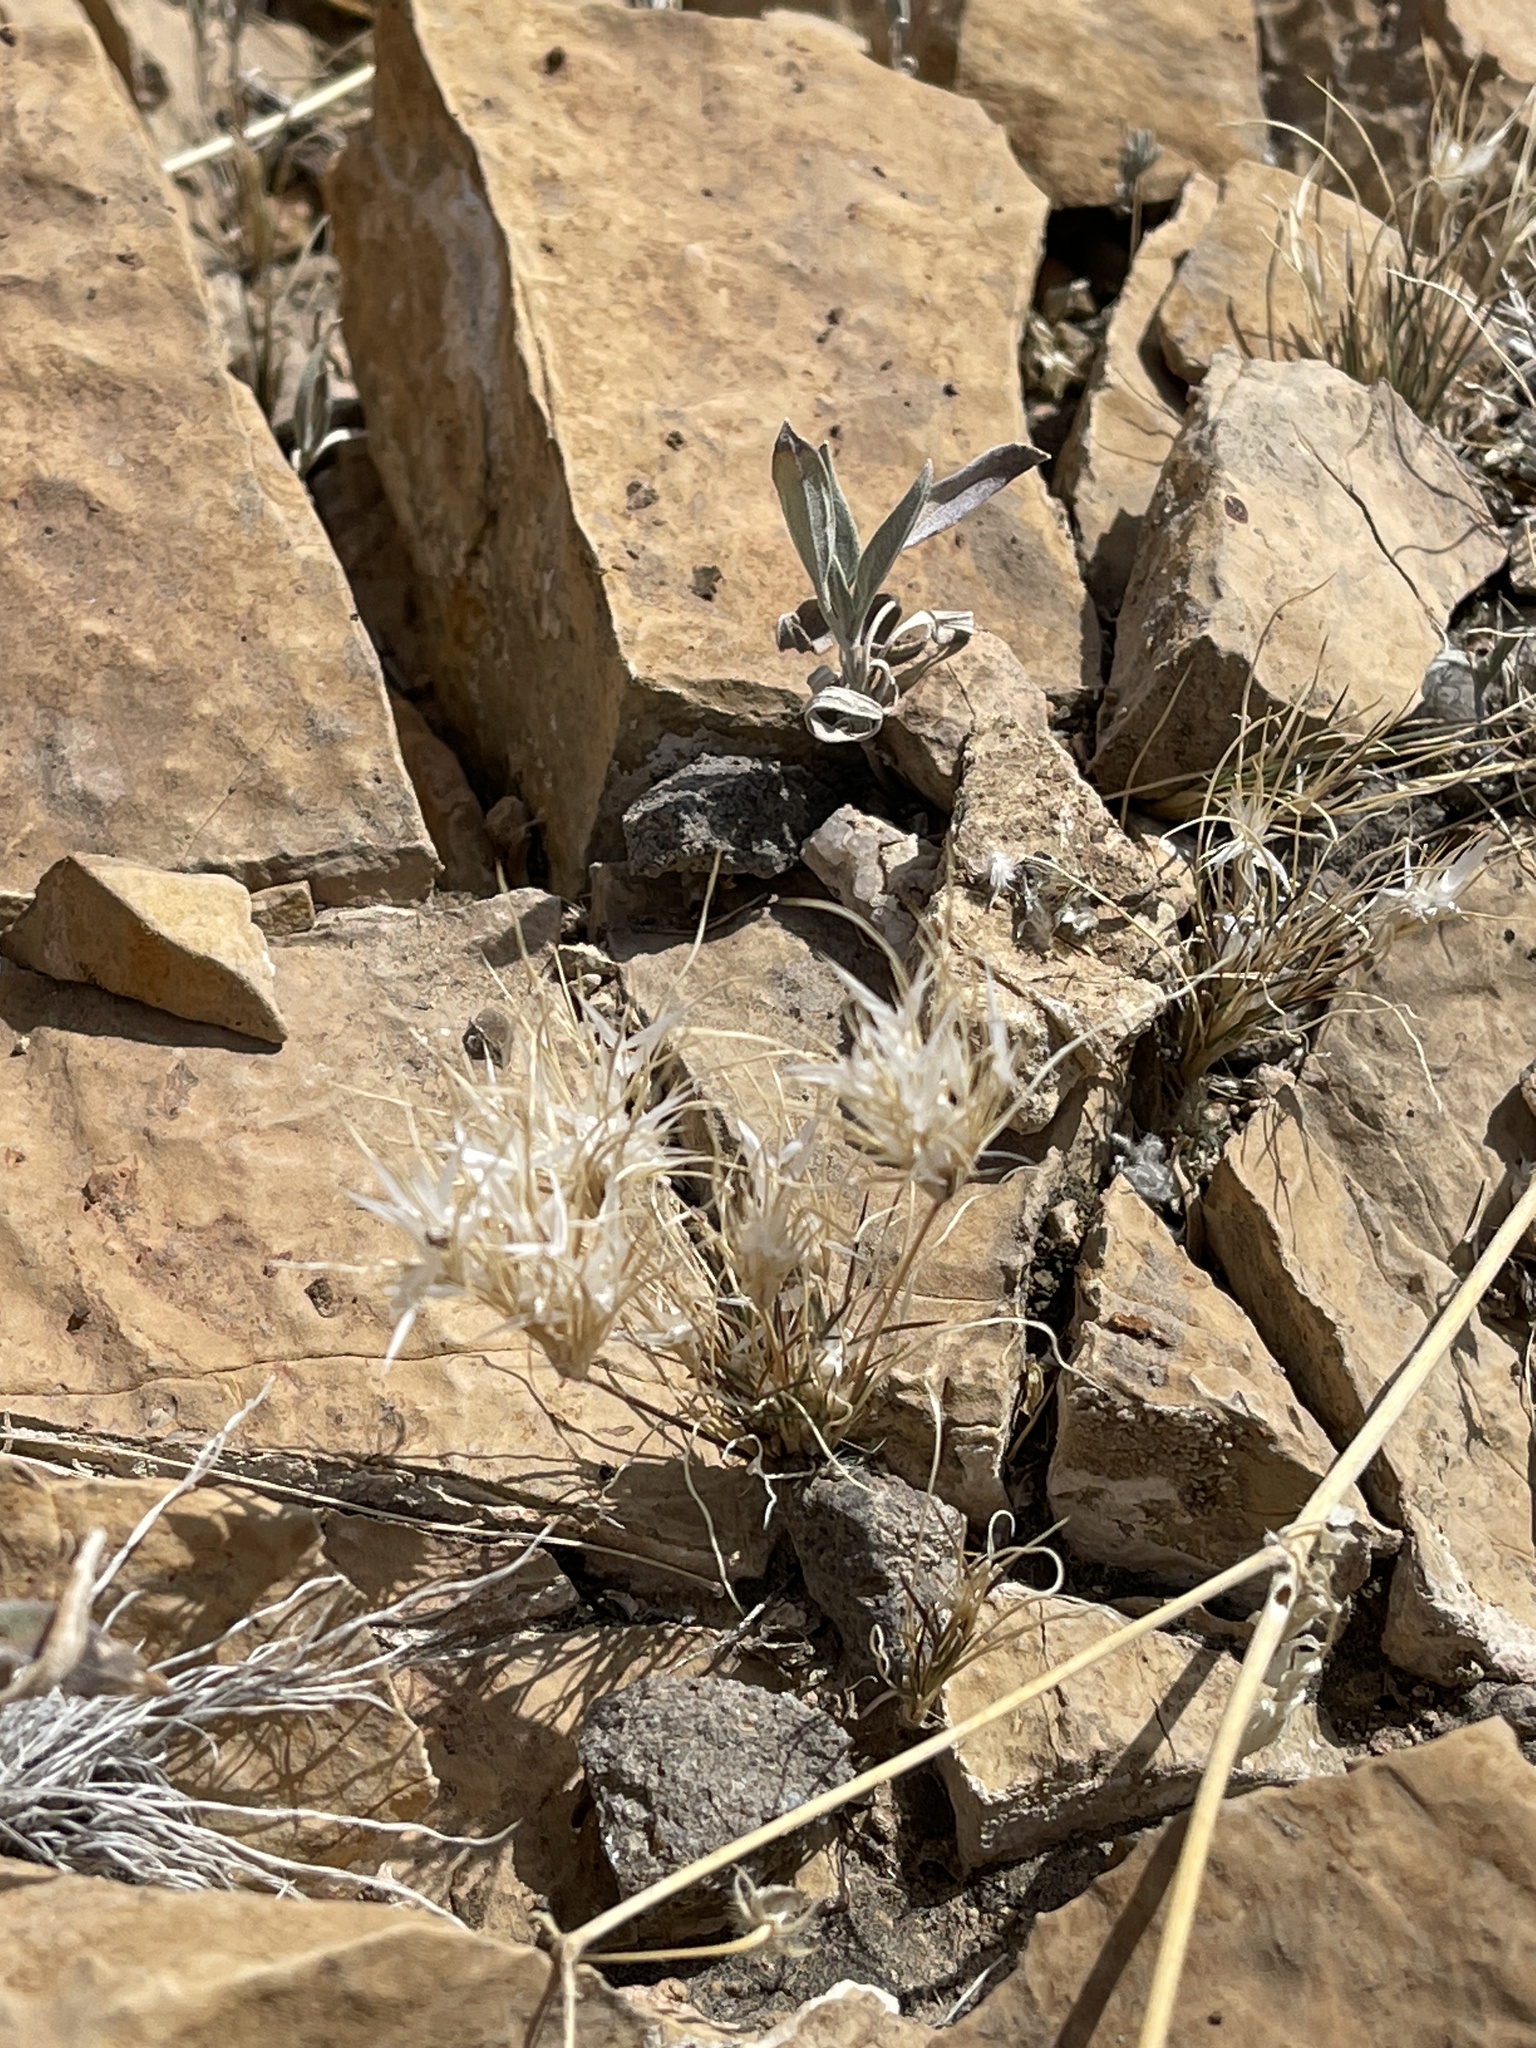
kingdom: Plantae
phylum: Tracheophyta
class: Liliopsida
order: Poales
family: Poaceae
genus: Dasyochloa
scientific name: Dasyochloa pulchella
